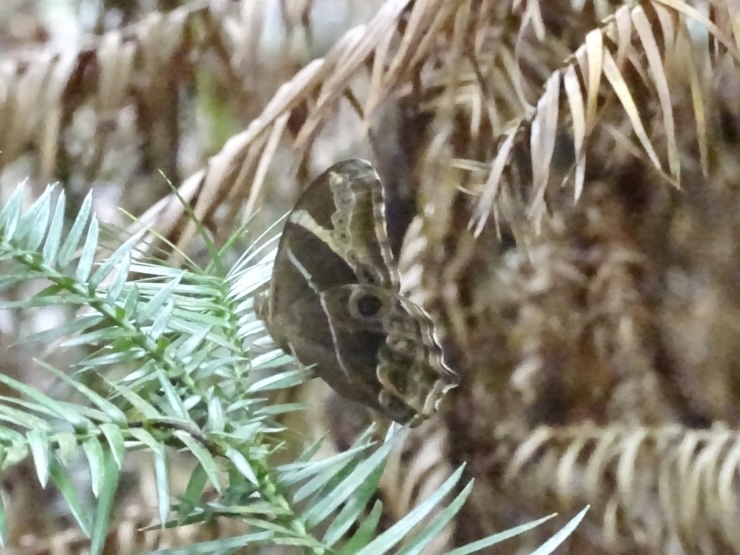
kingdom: Animalia
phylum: Arthropoda
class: Insecta
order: Lepidoptera
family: Nymphalidae
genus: Lethe
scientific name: Lethe europa
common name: Bamboo treebrown
